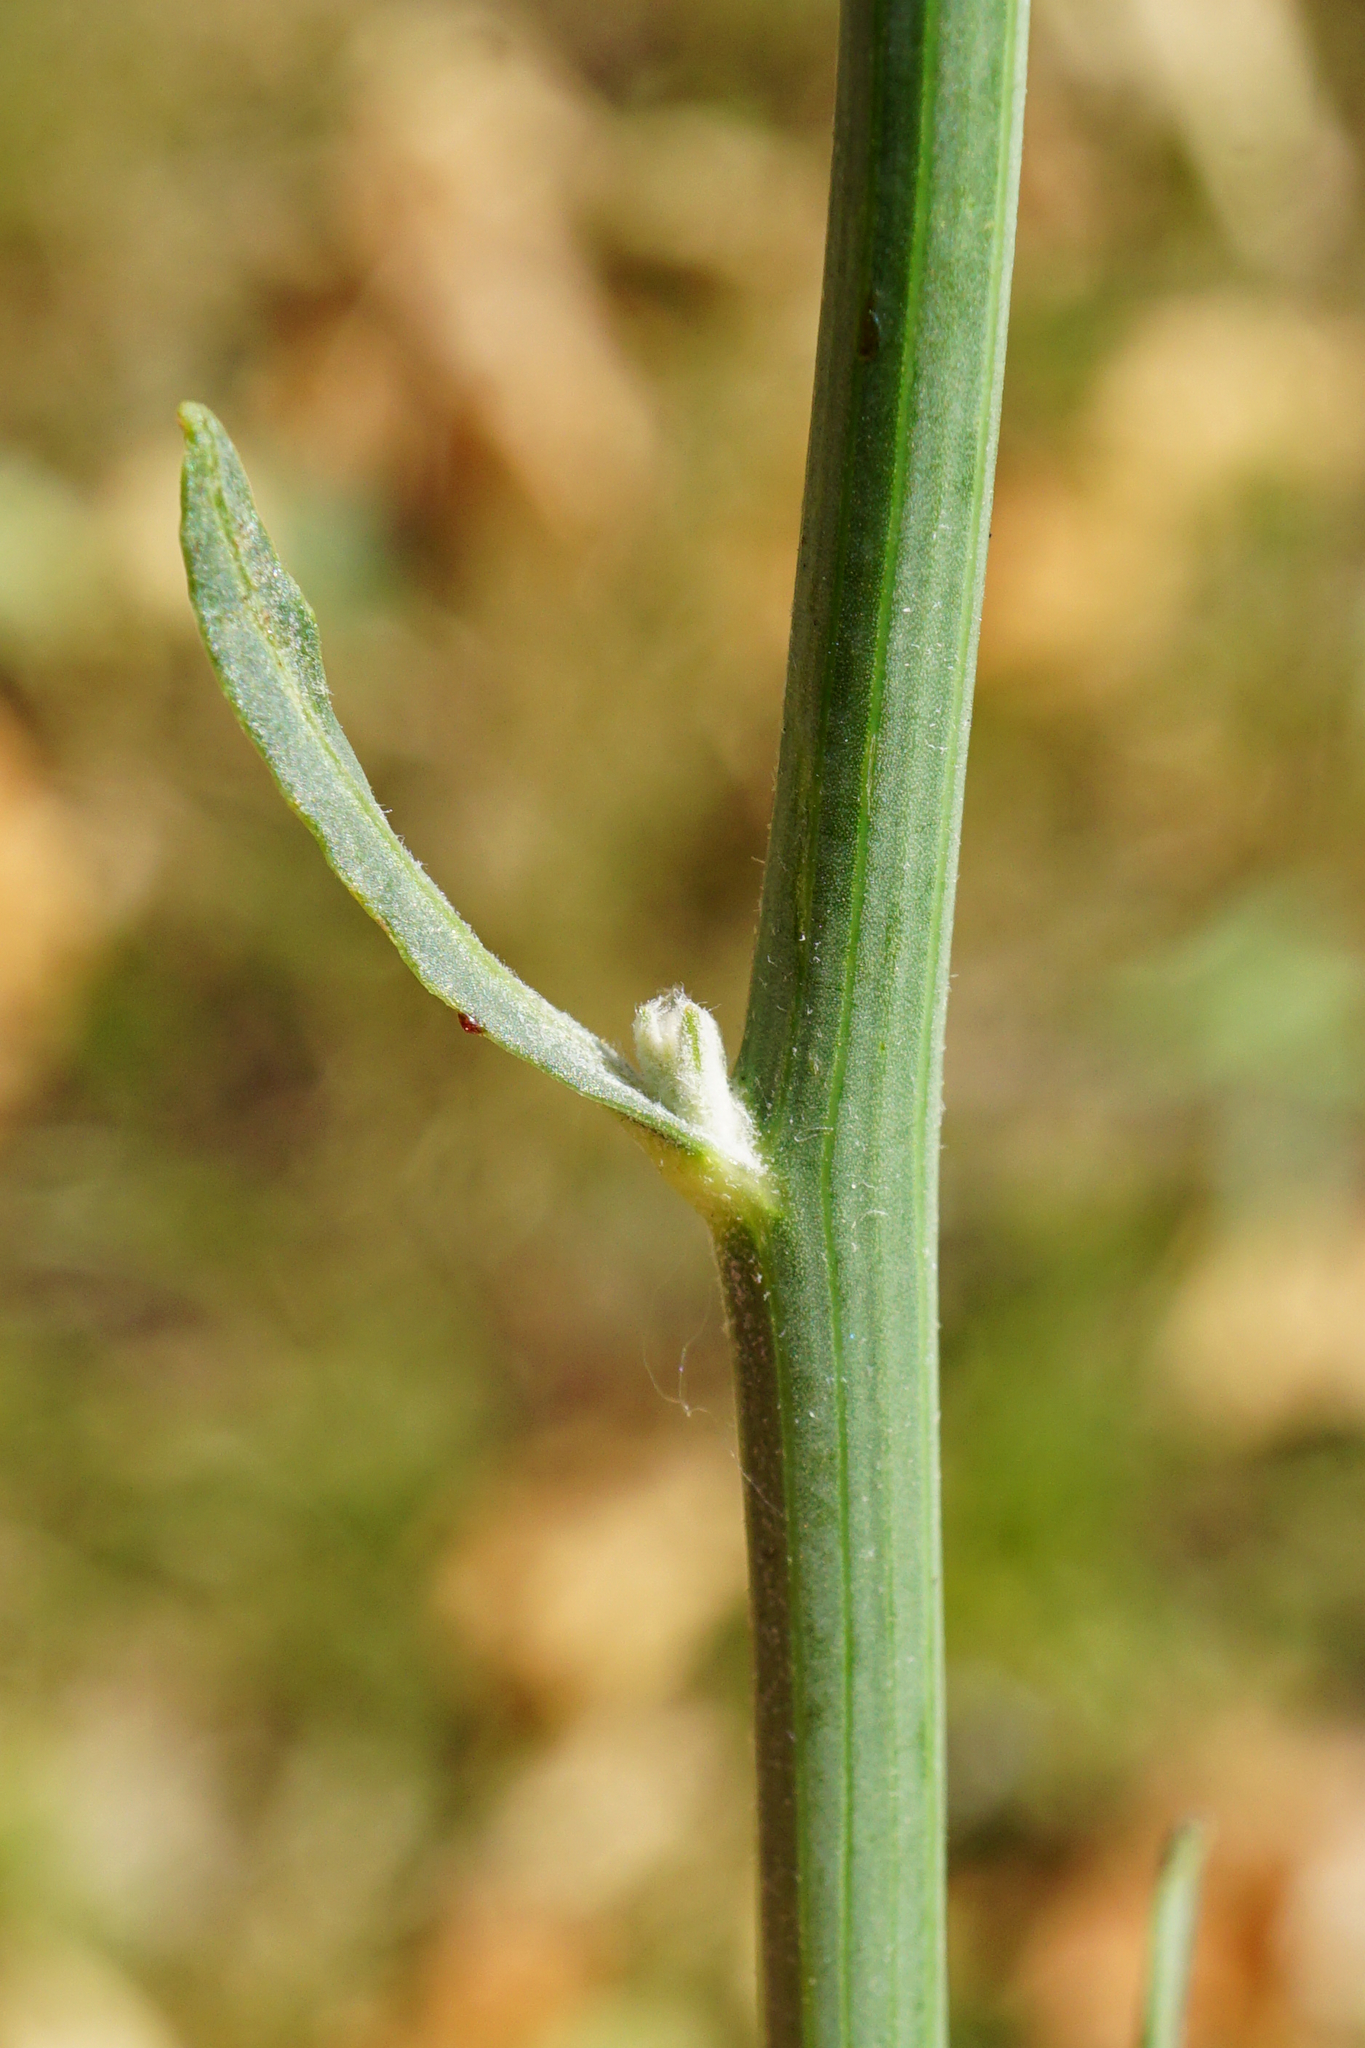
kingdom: Plantae
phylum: Tracheophyta
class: Magnoliopsida
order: Asterales
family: Asteraceae
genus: Chondrilla
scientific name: Chondrilla juncea
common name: Skeleton weed
